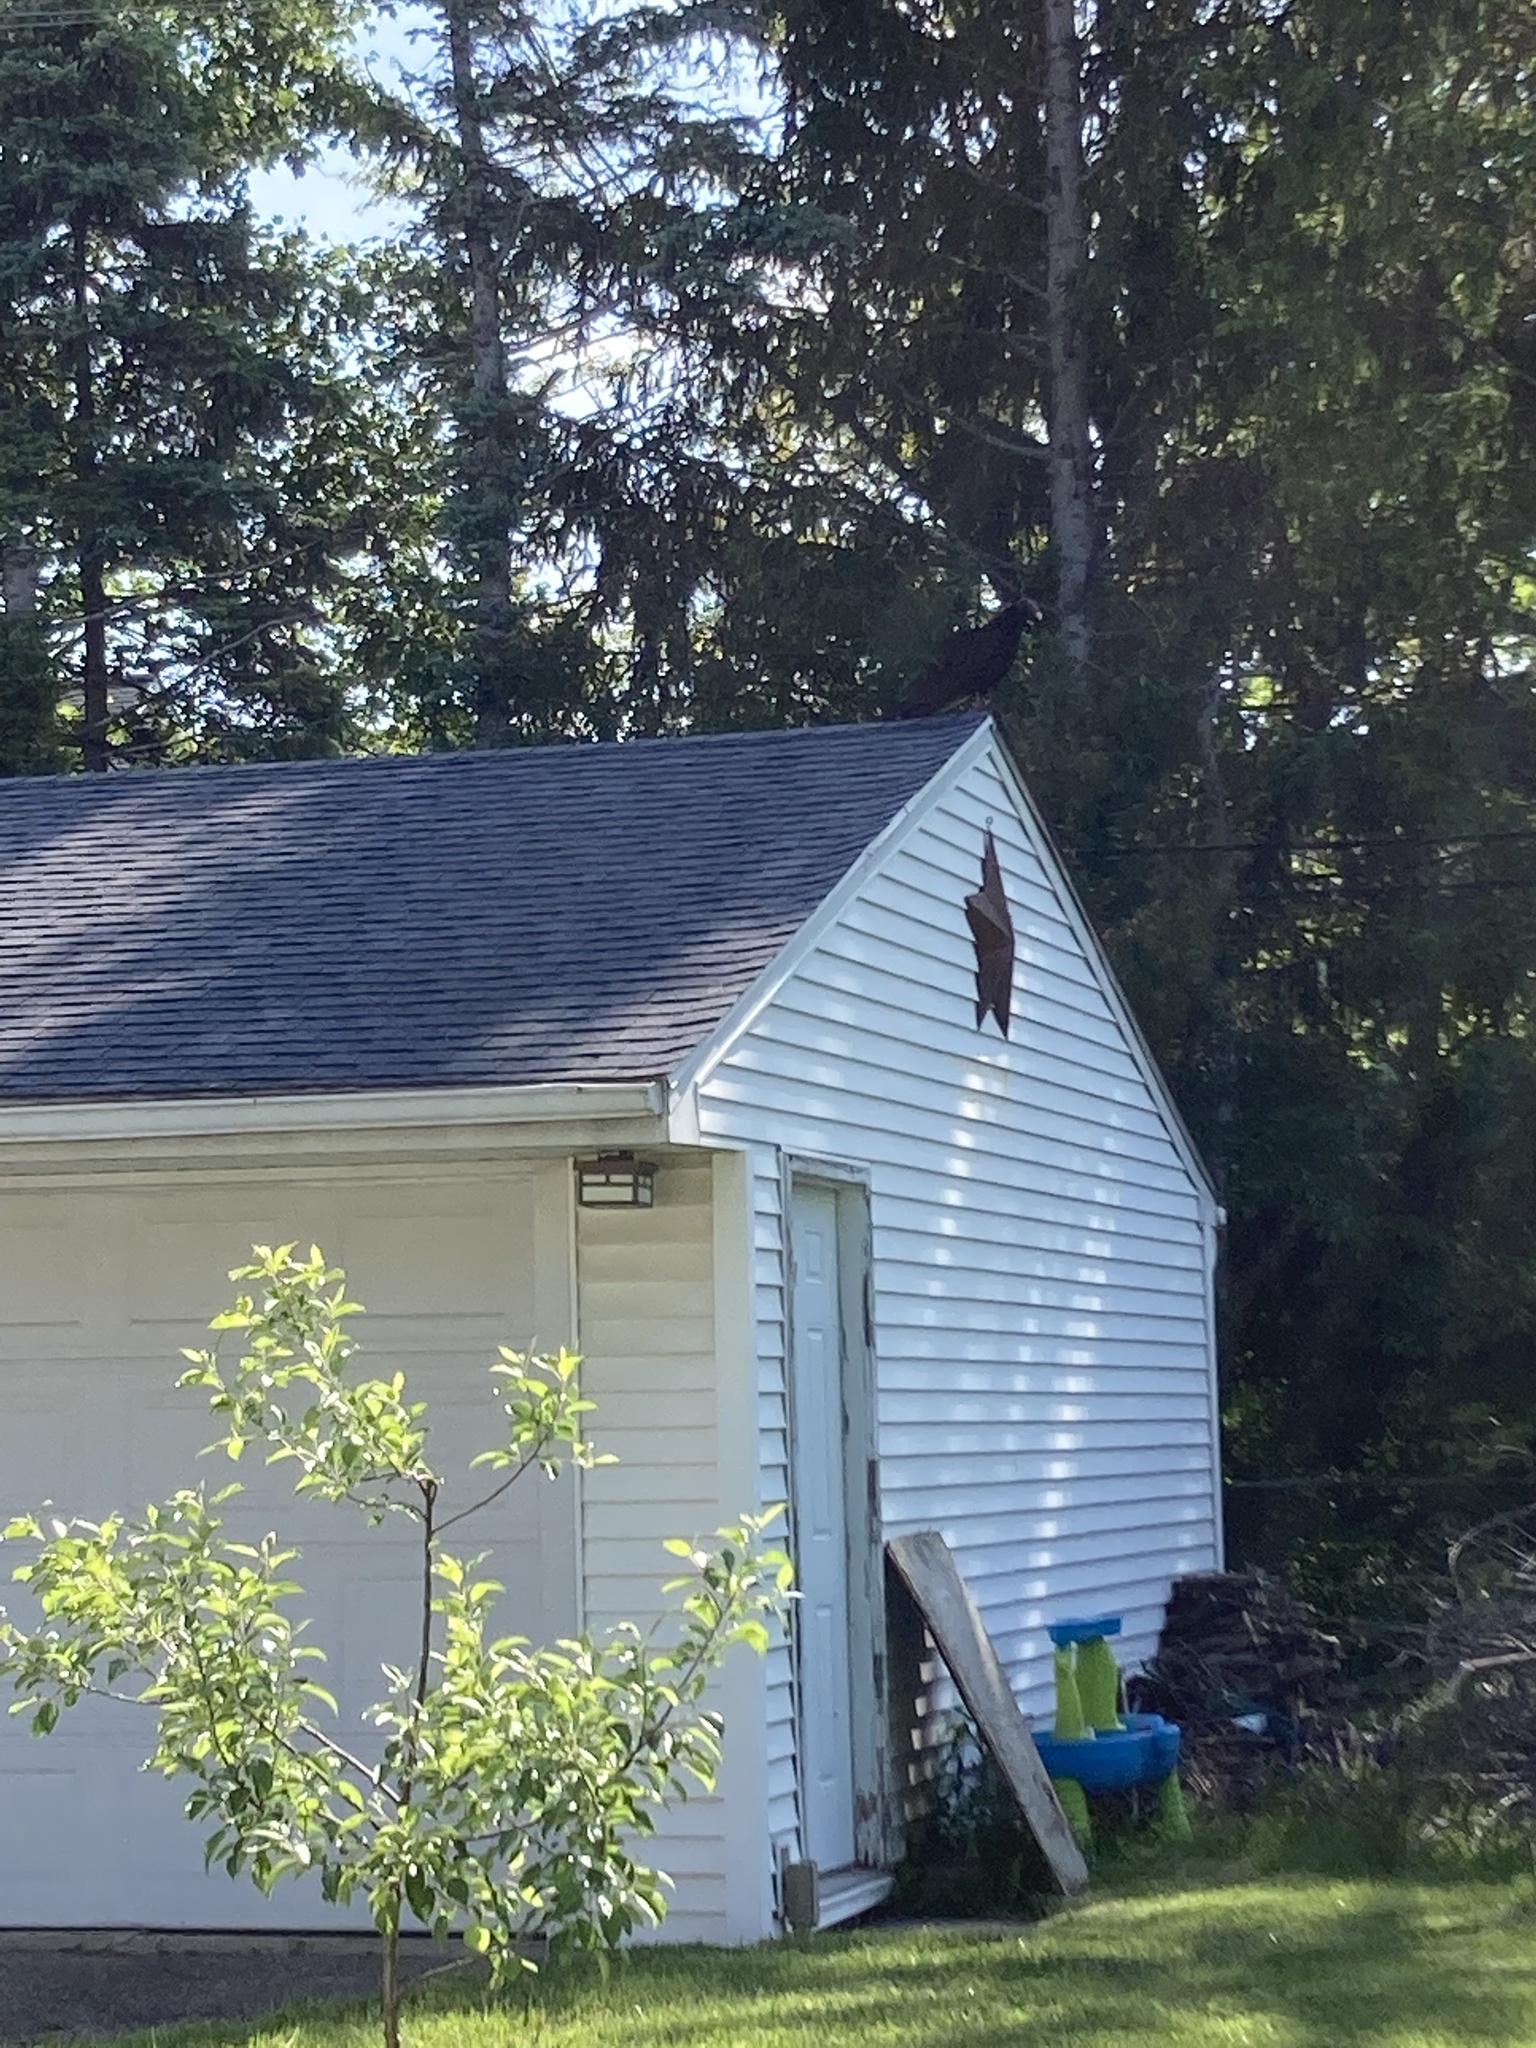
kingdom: Animalia
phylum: Chordata
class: Aves
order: Accipitriformes
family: Cathartidae
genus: Cathartes
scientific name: Cathartes aura
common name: Turkey vulture
